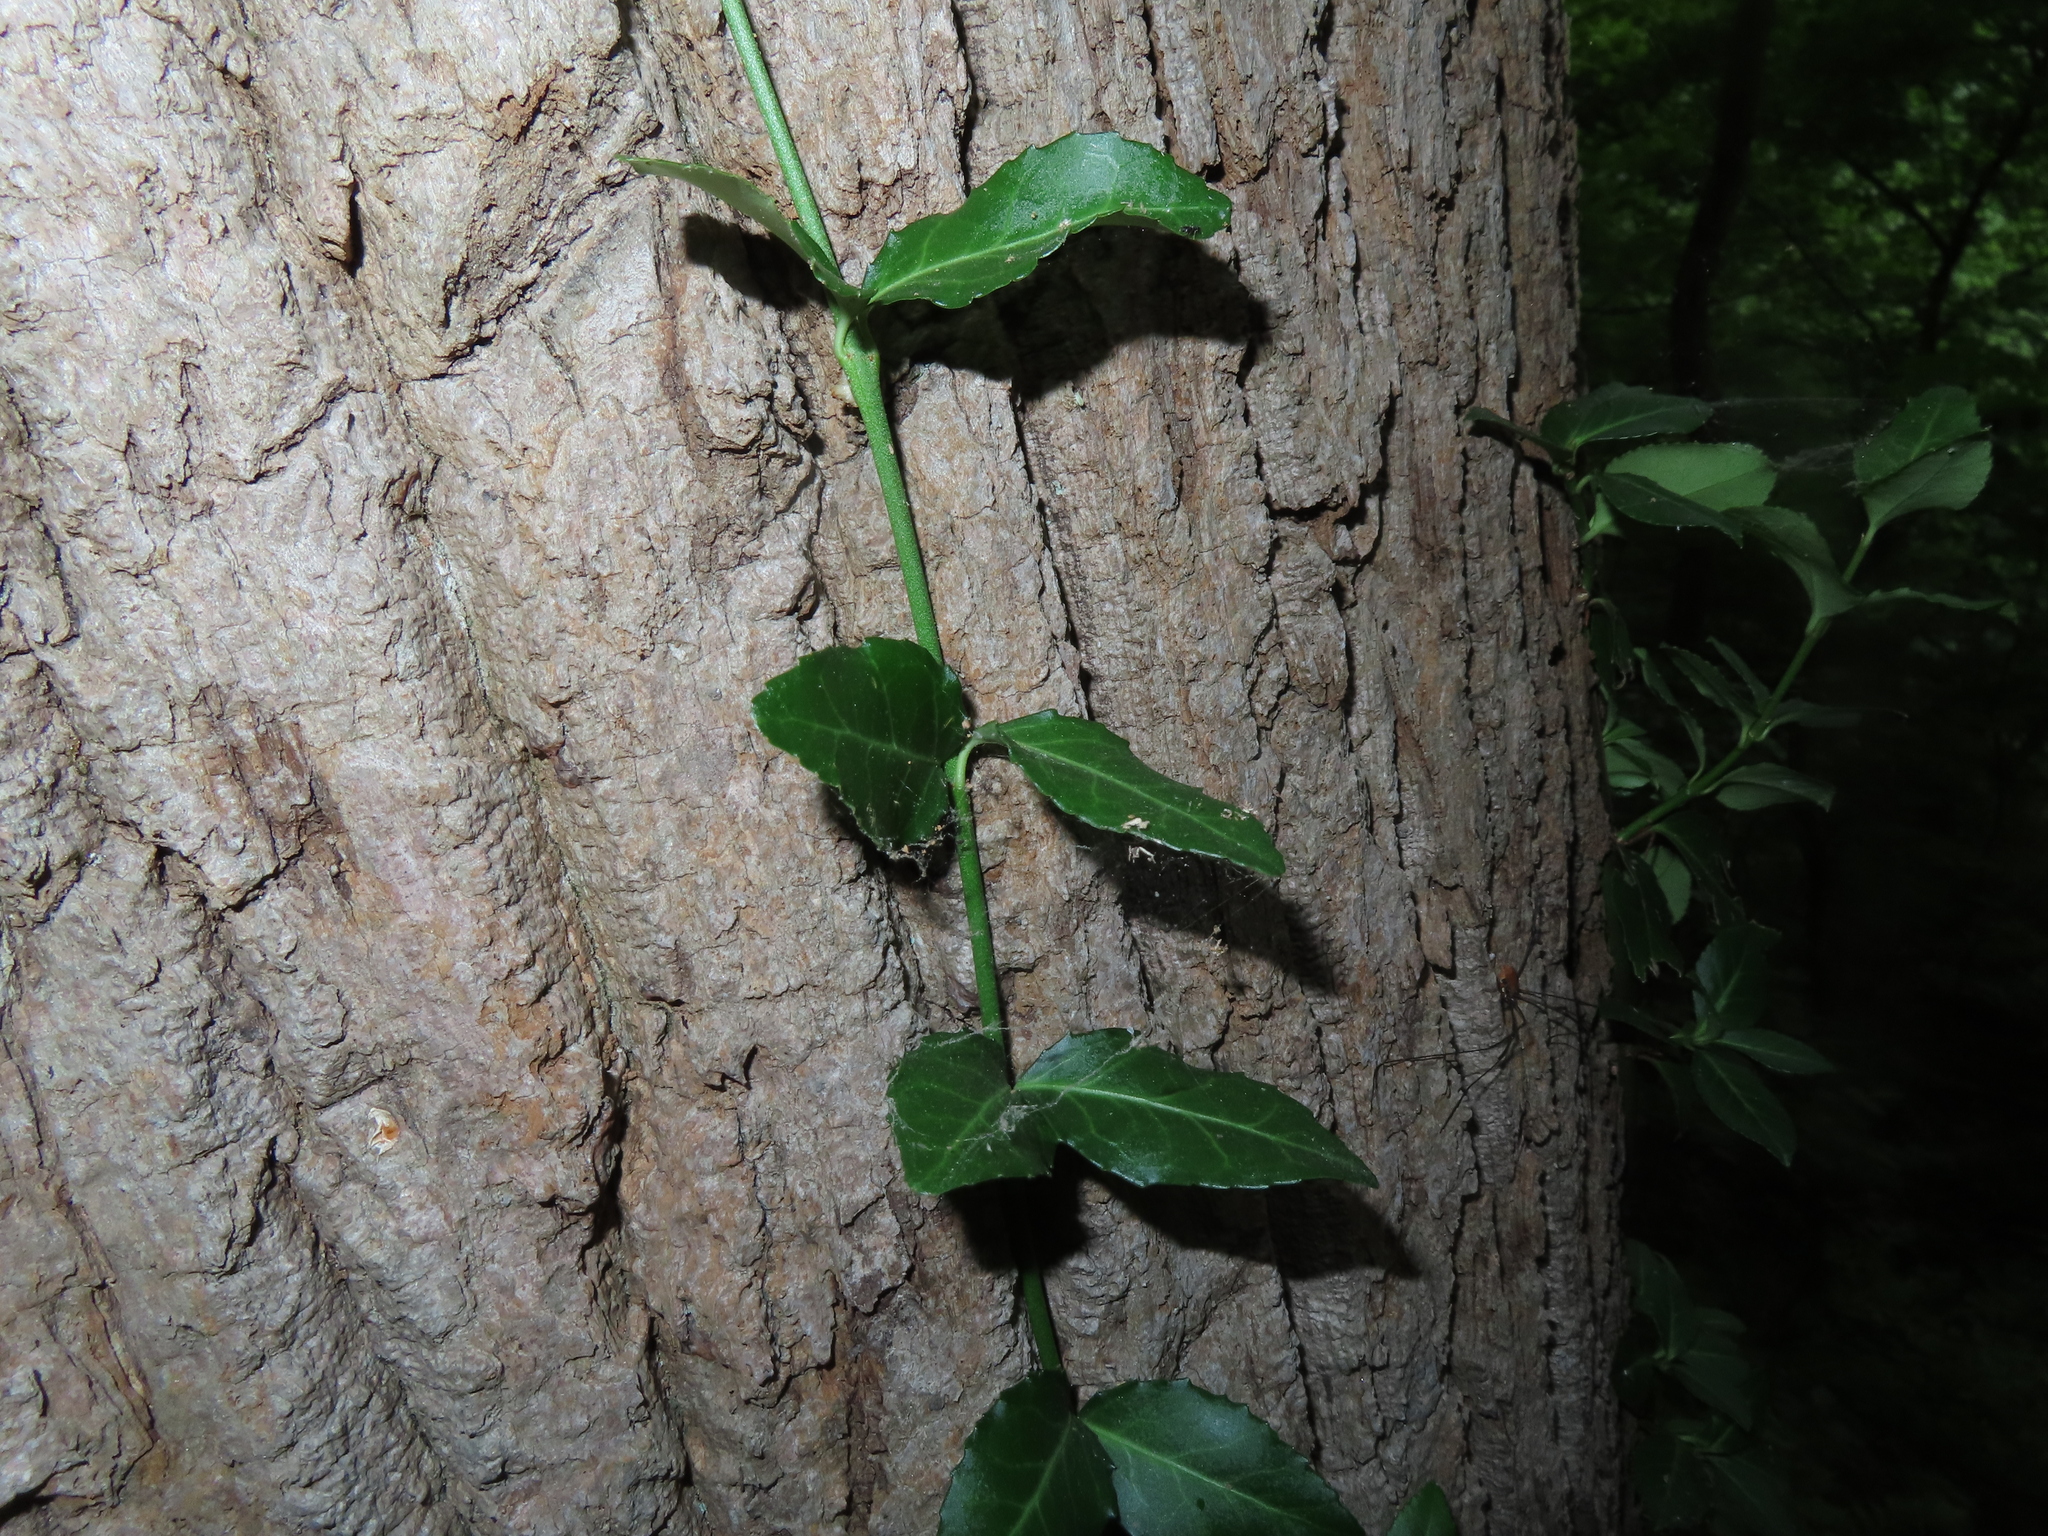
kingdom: Plantae
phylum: Tracheophyta
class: Magnoliopsida
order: Celastrales
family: Celastraceae
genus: Euonymus
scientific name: Euonymus fortunei
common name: Climbing euonymus
